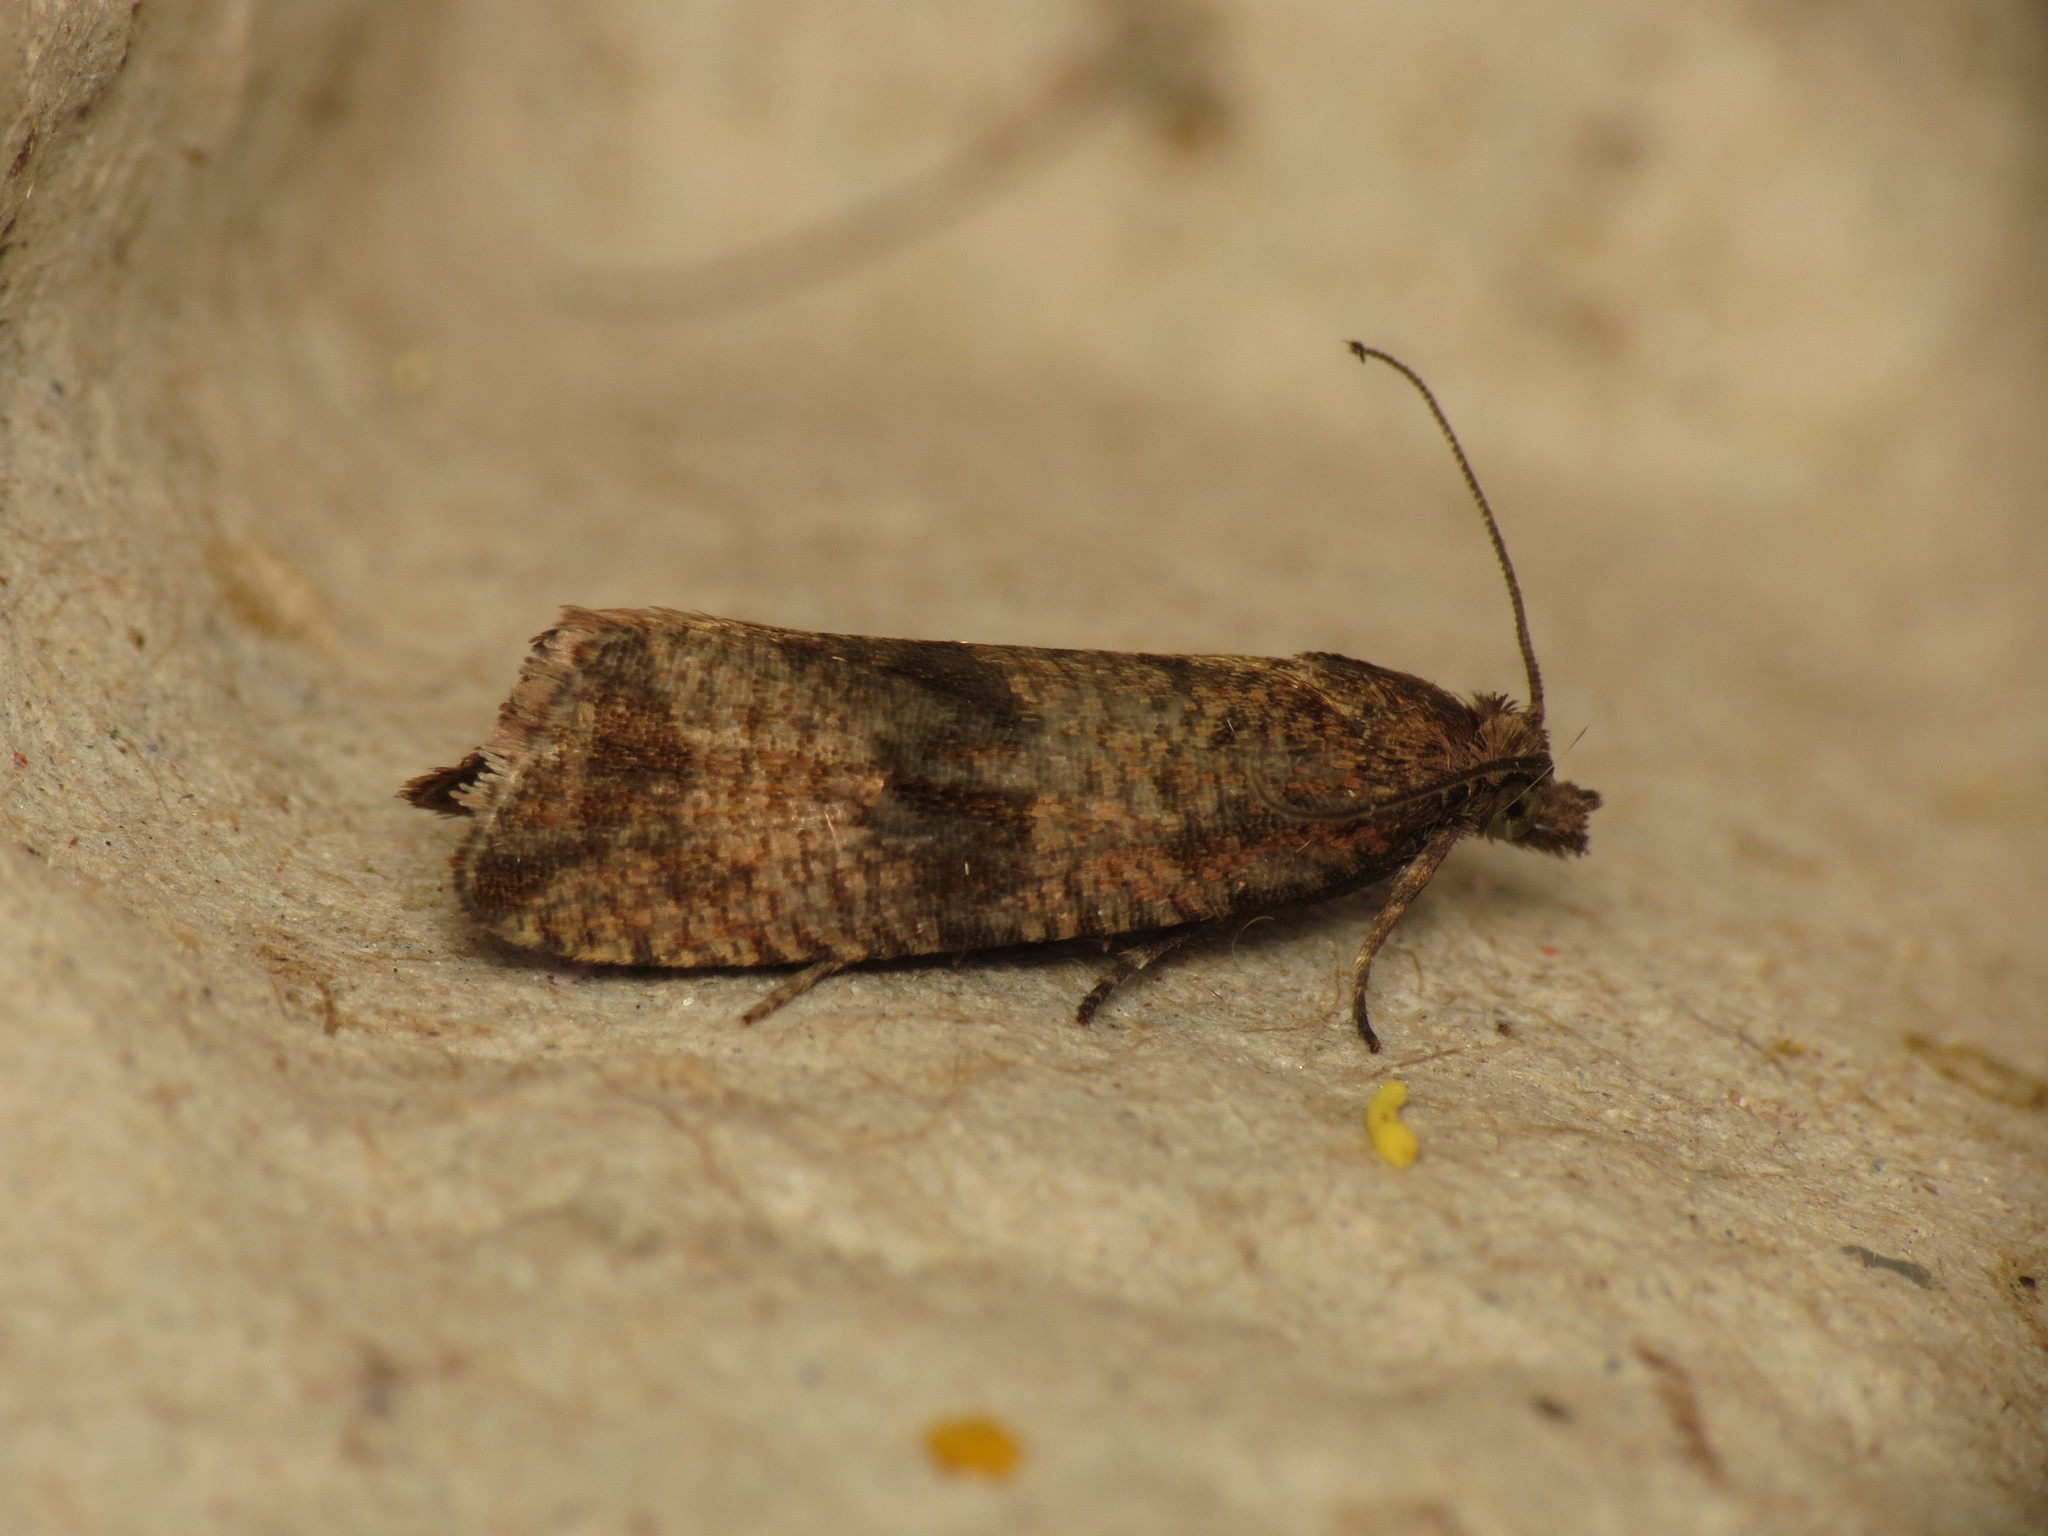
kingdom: Animalia
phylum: Arthropoda
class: Insecta
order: Lepidoptera
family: Tortricidae
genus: Celypha
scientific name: Celypha striana
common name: Barred marble
